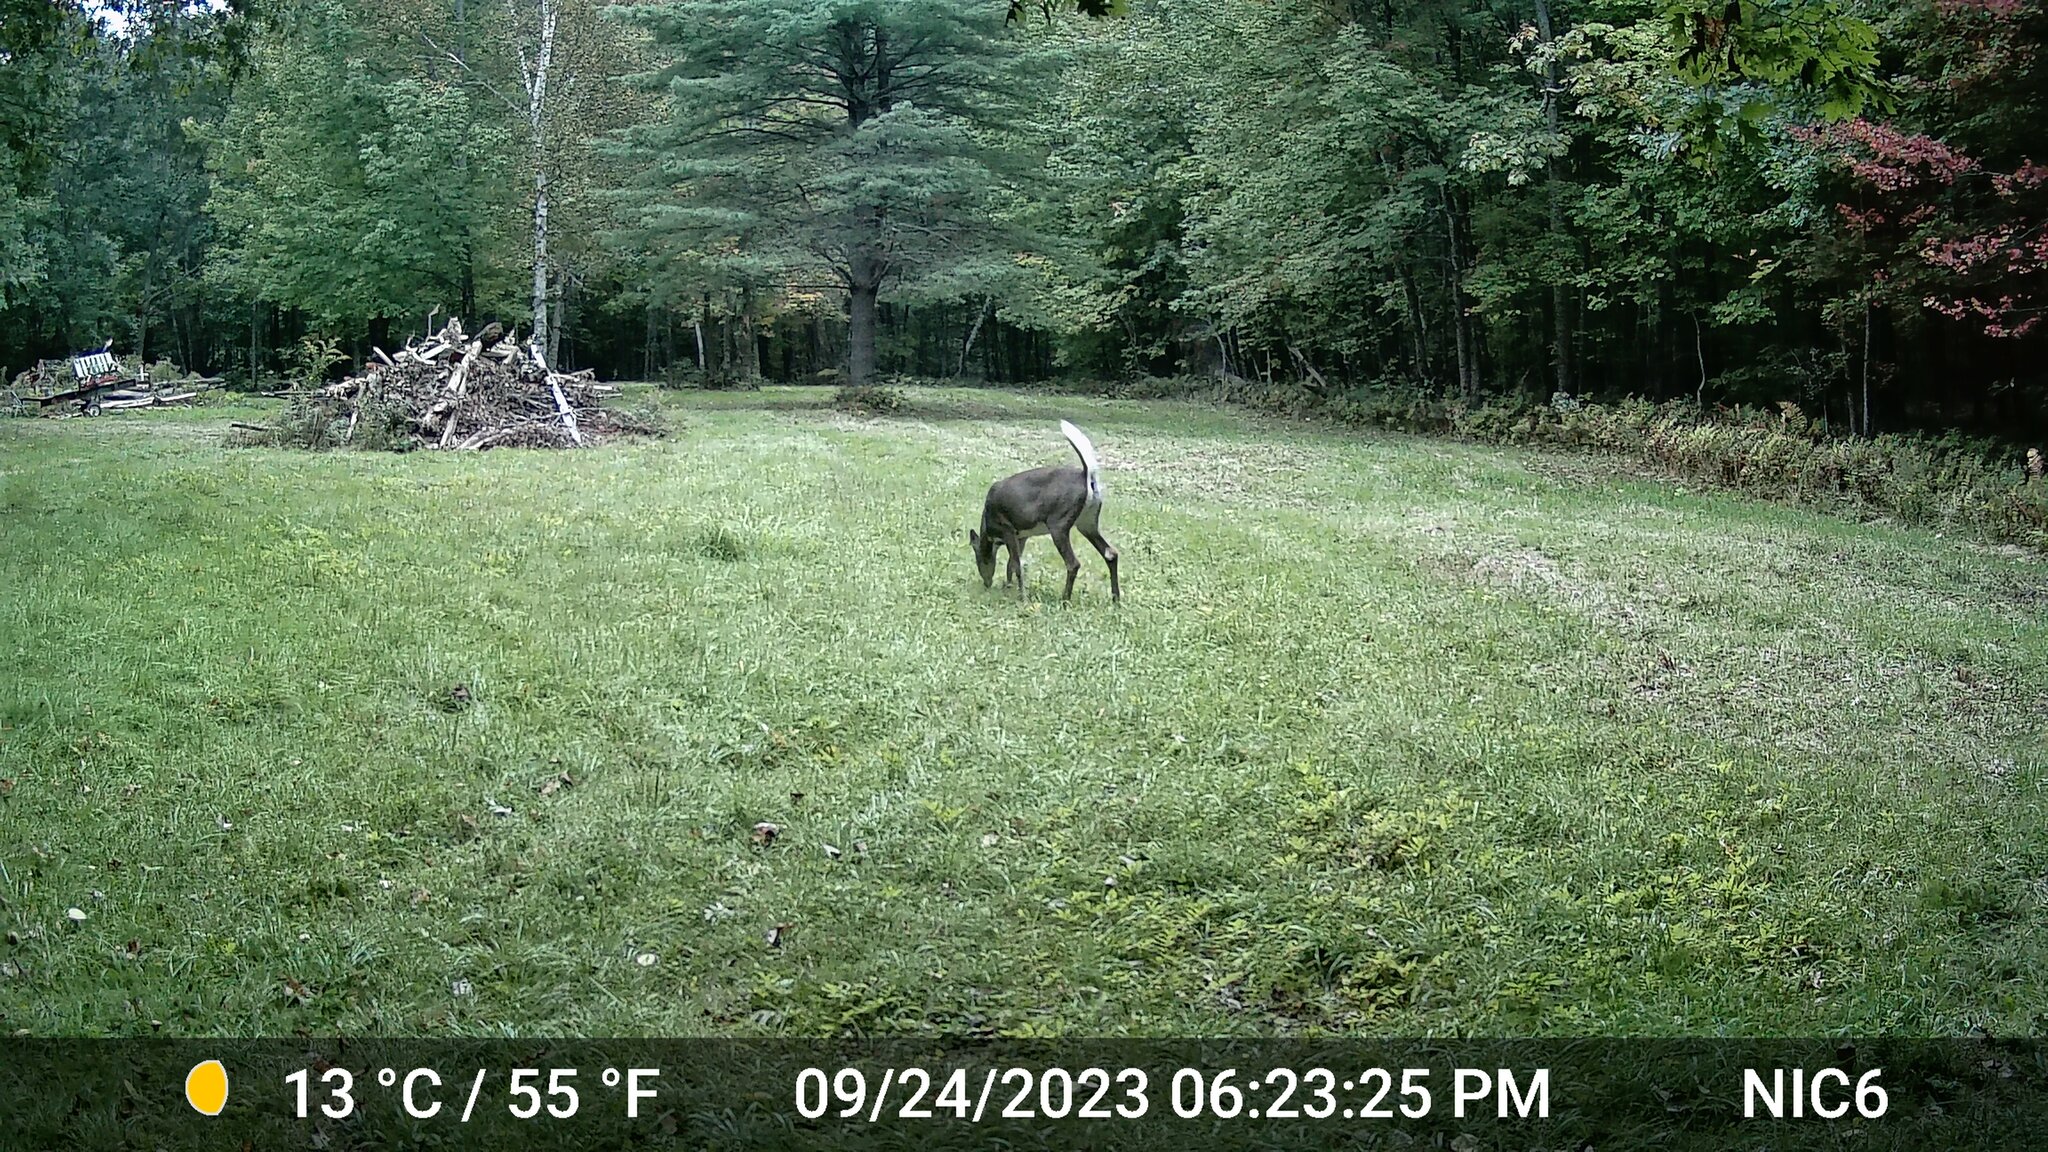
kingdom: Animalia
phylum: Chordata
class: Mammalia
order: Artiodactyla
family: Cervidae
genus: Odocoileus
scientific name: Odocoileus virginianus
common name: White-tailed deer
